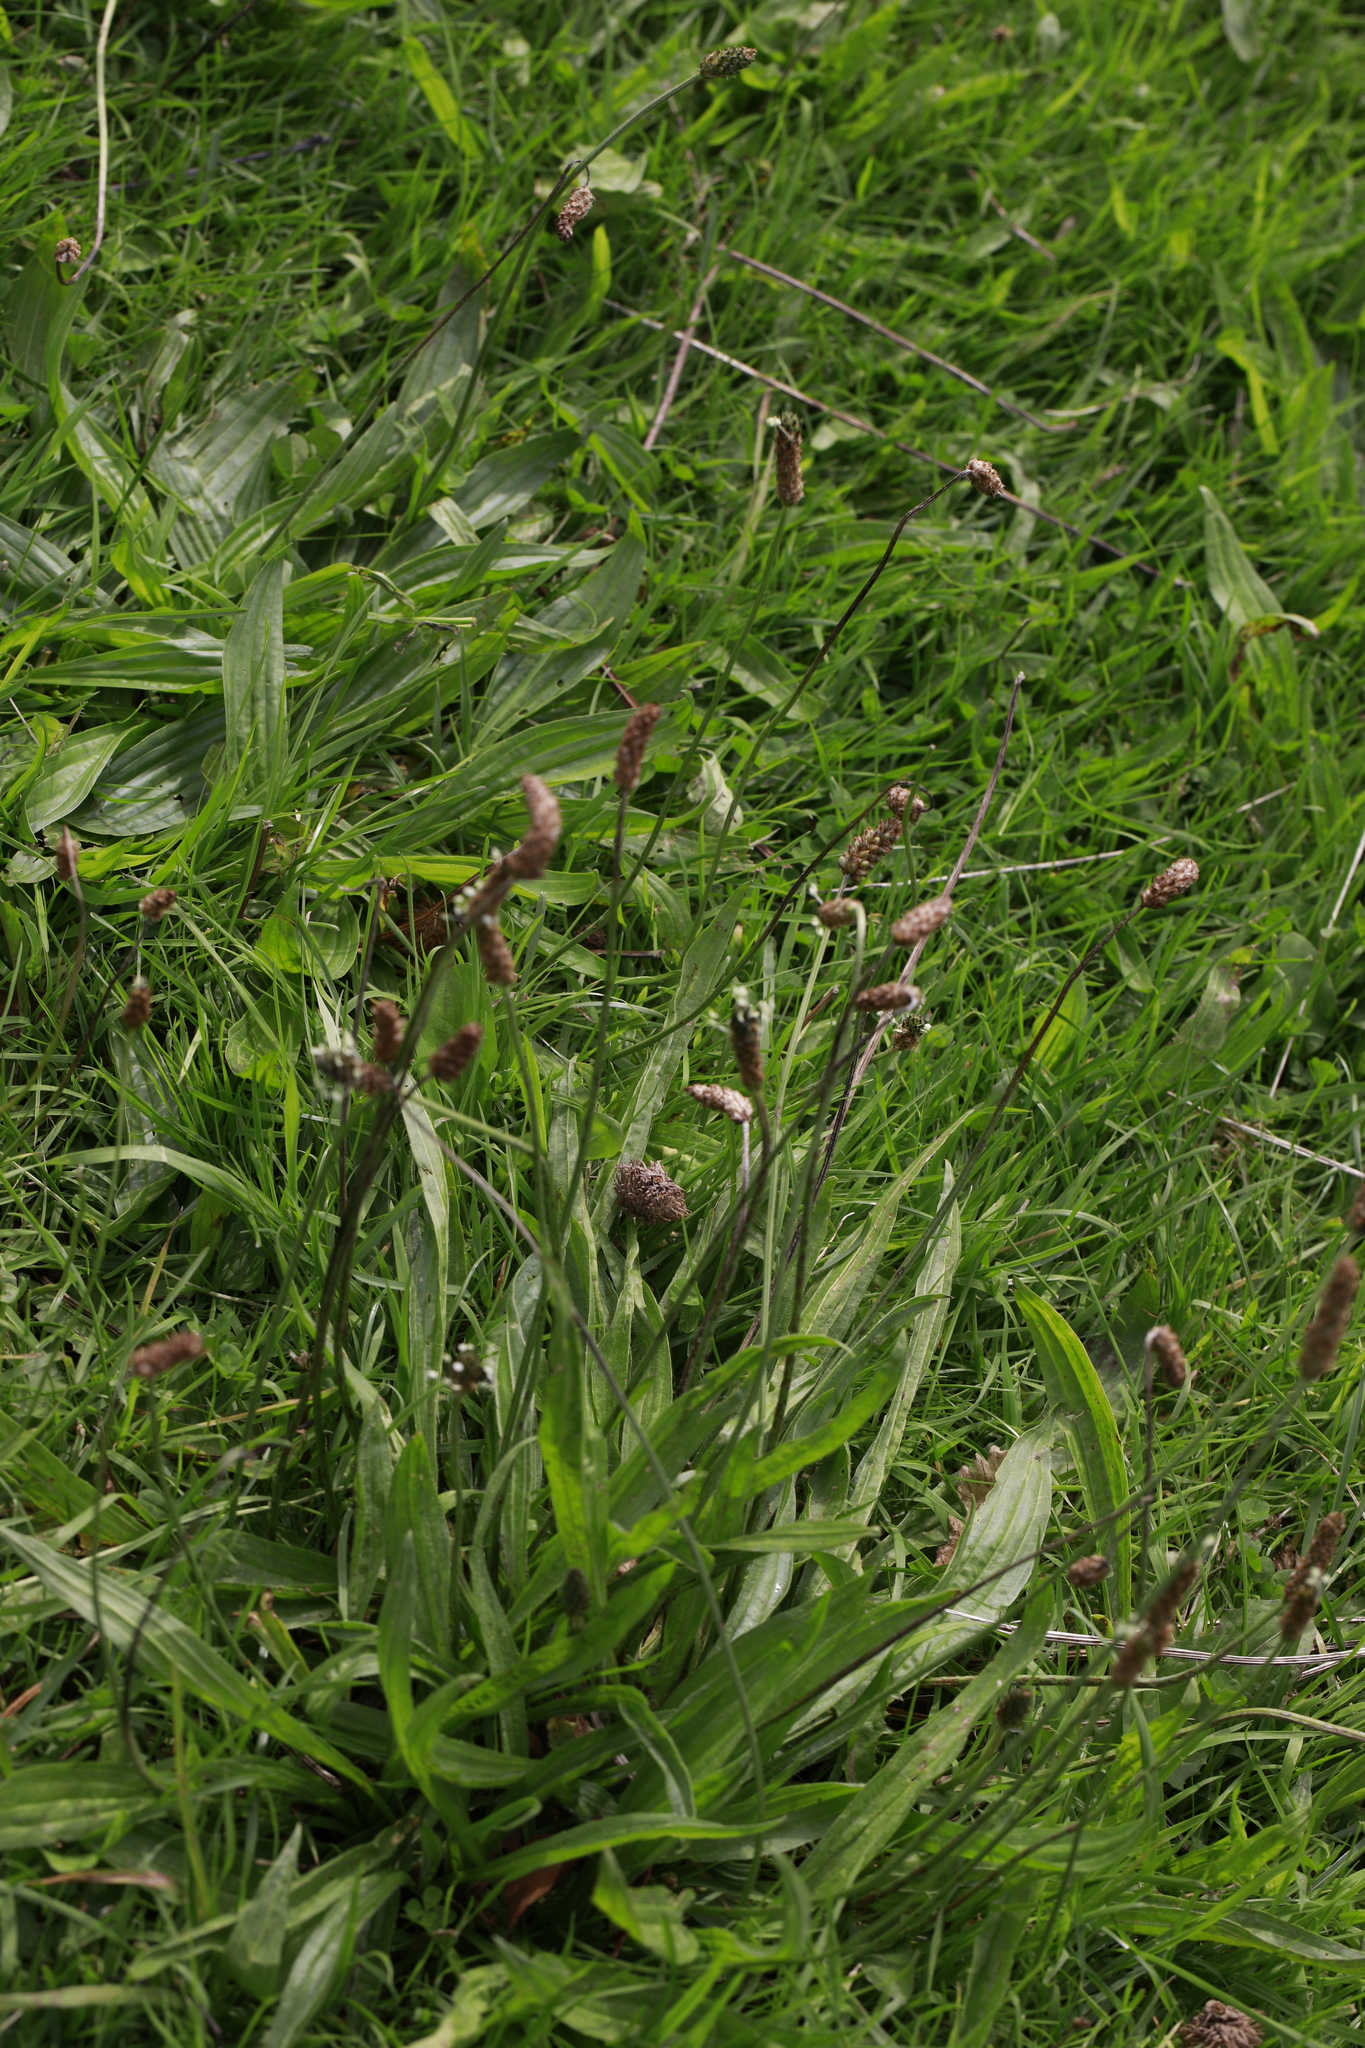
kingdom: Plantae
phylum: Tracheophyta
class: Magnoliopsida
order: Lamiales
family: Plantaginaceae
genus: Plantago
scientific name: Plantago lanceolata
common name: Ribwort plantain
